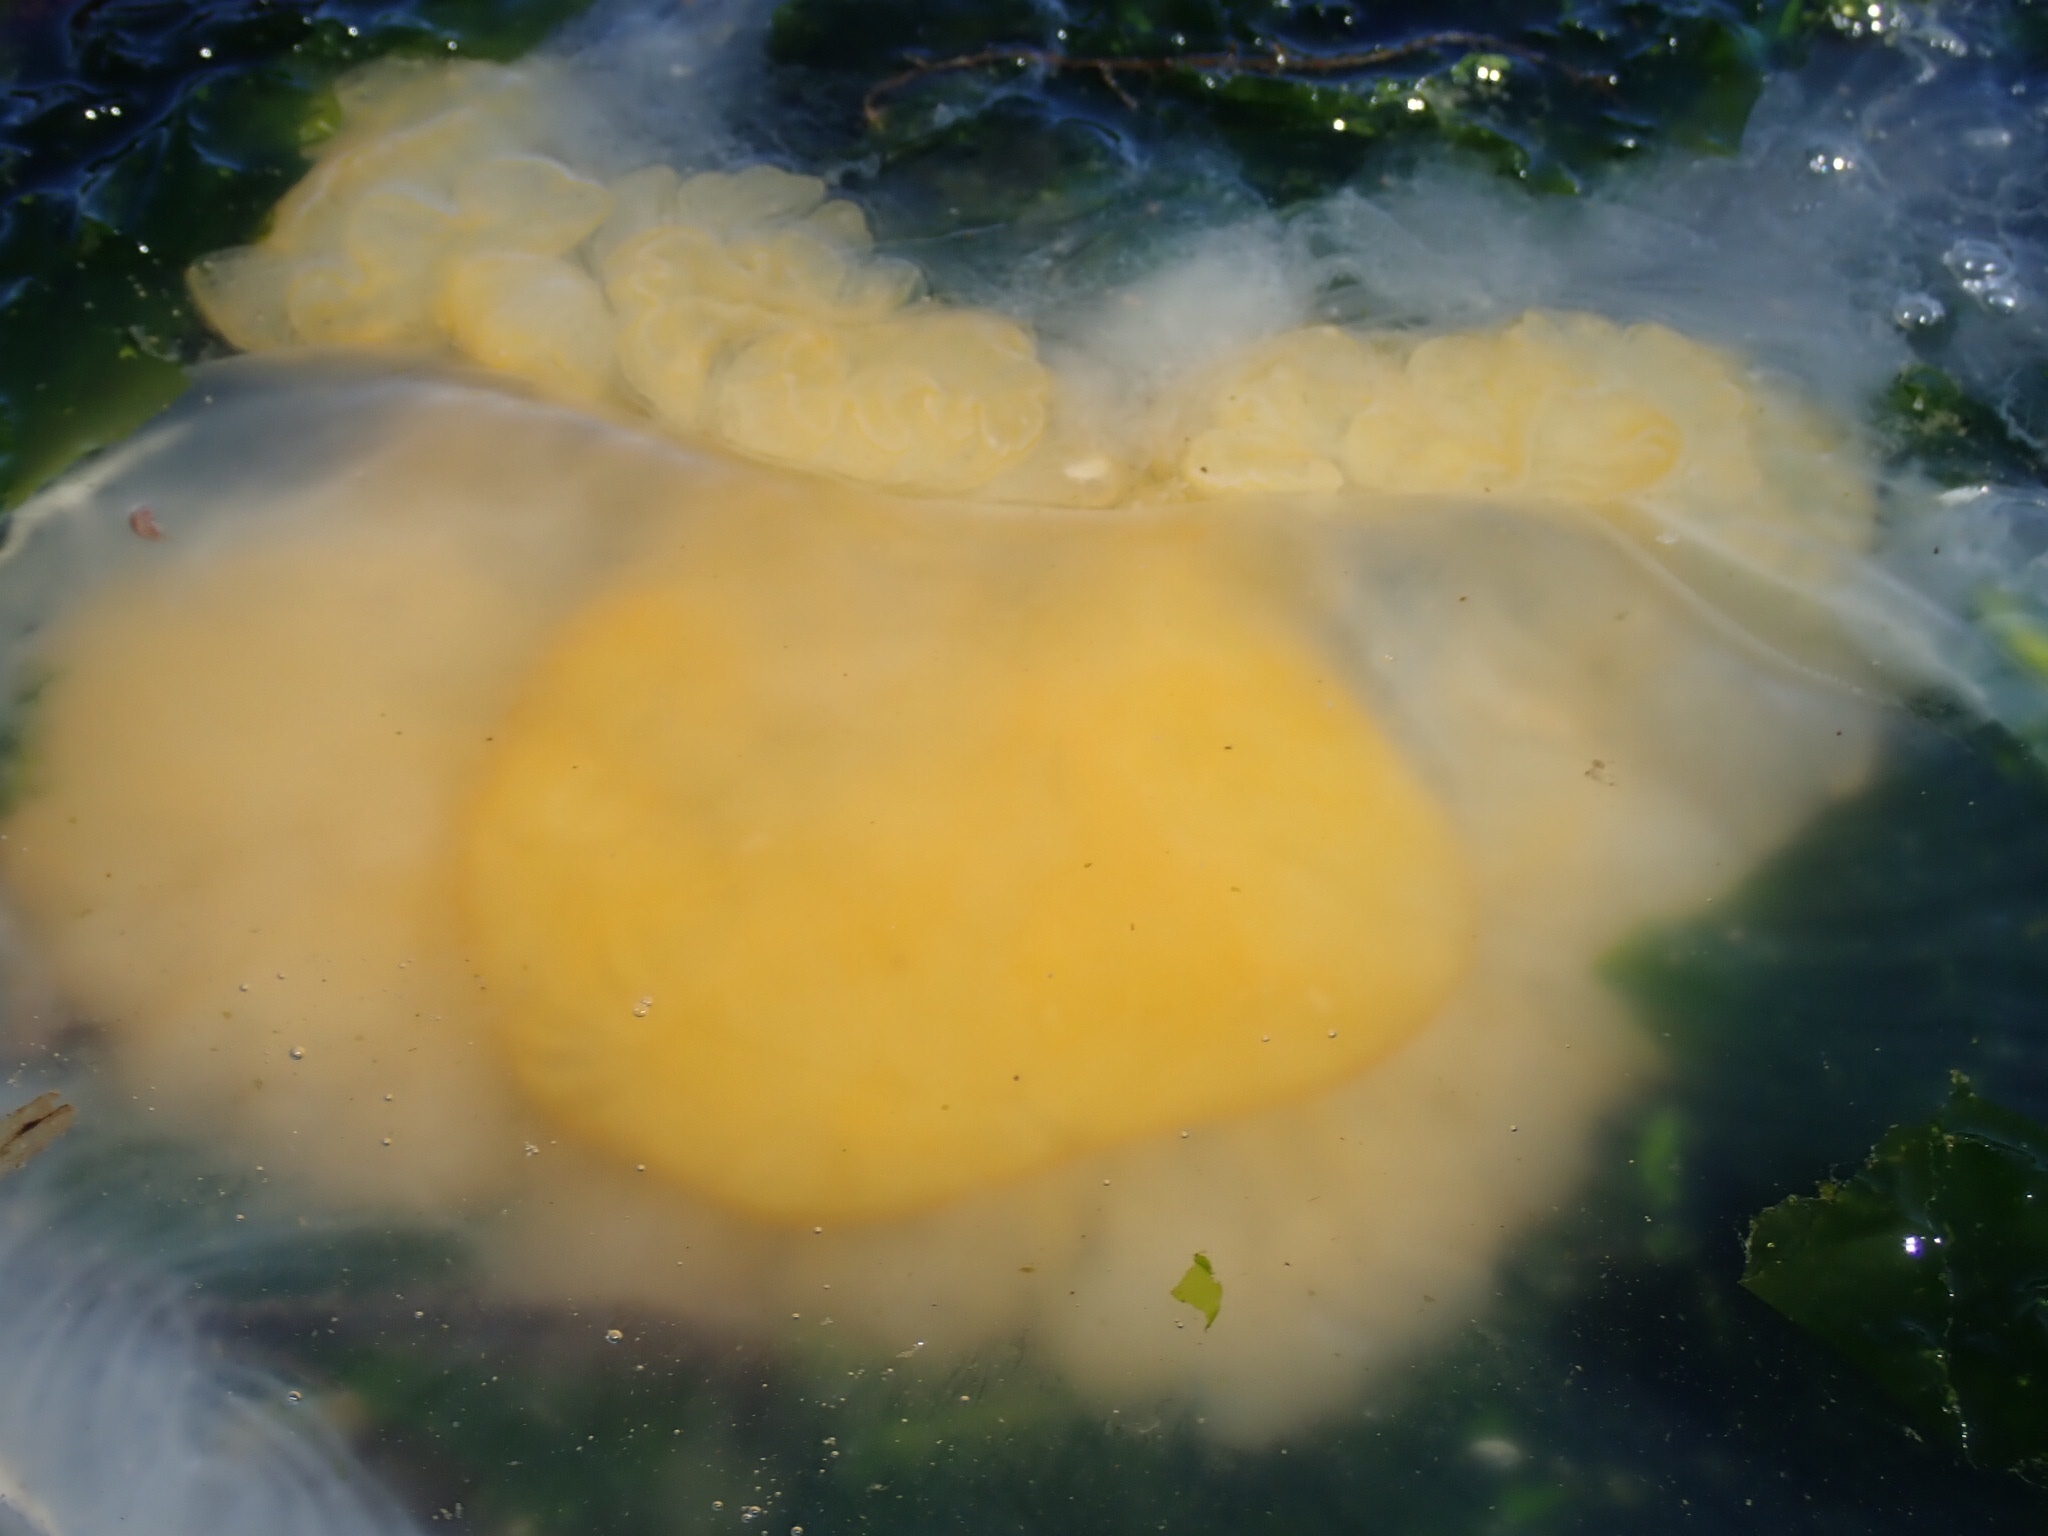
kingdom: Animalia
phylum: Cnidaria
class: Scyphozoa
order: Semaeostomeae
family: Phacellophoridae
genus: Phacellophora
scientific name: Phacellophora camtschatica
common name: Fried-egg jellyfish
